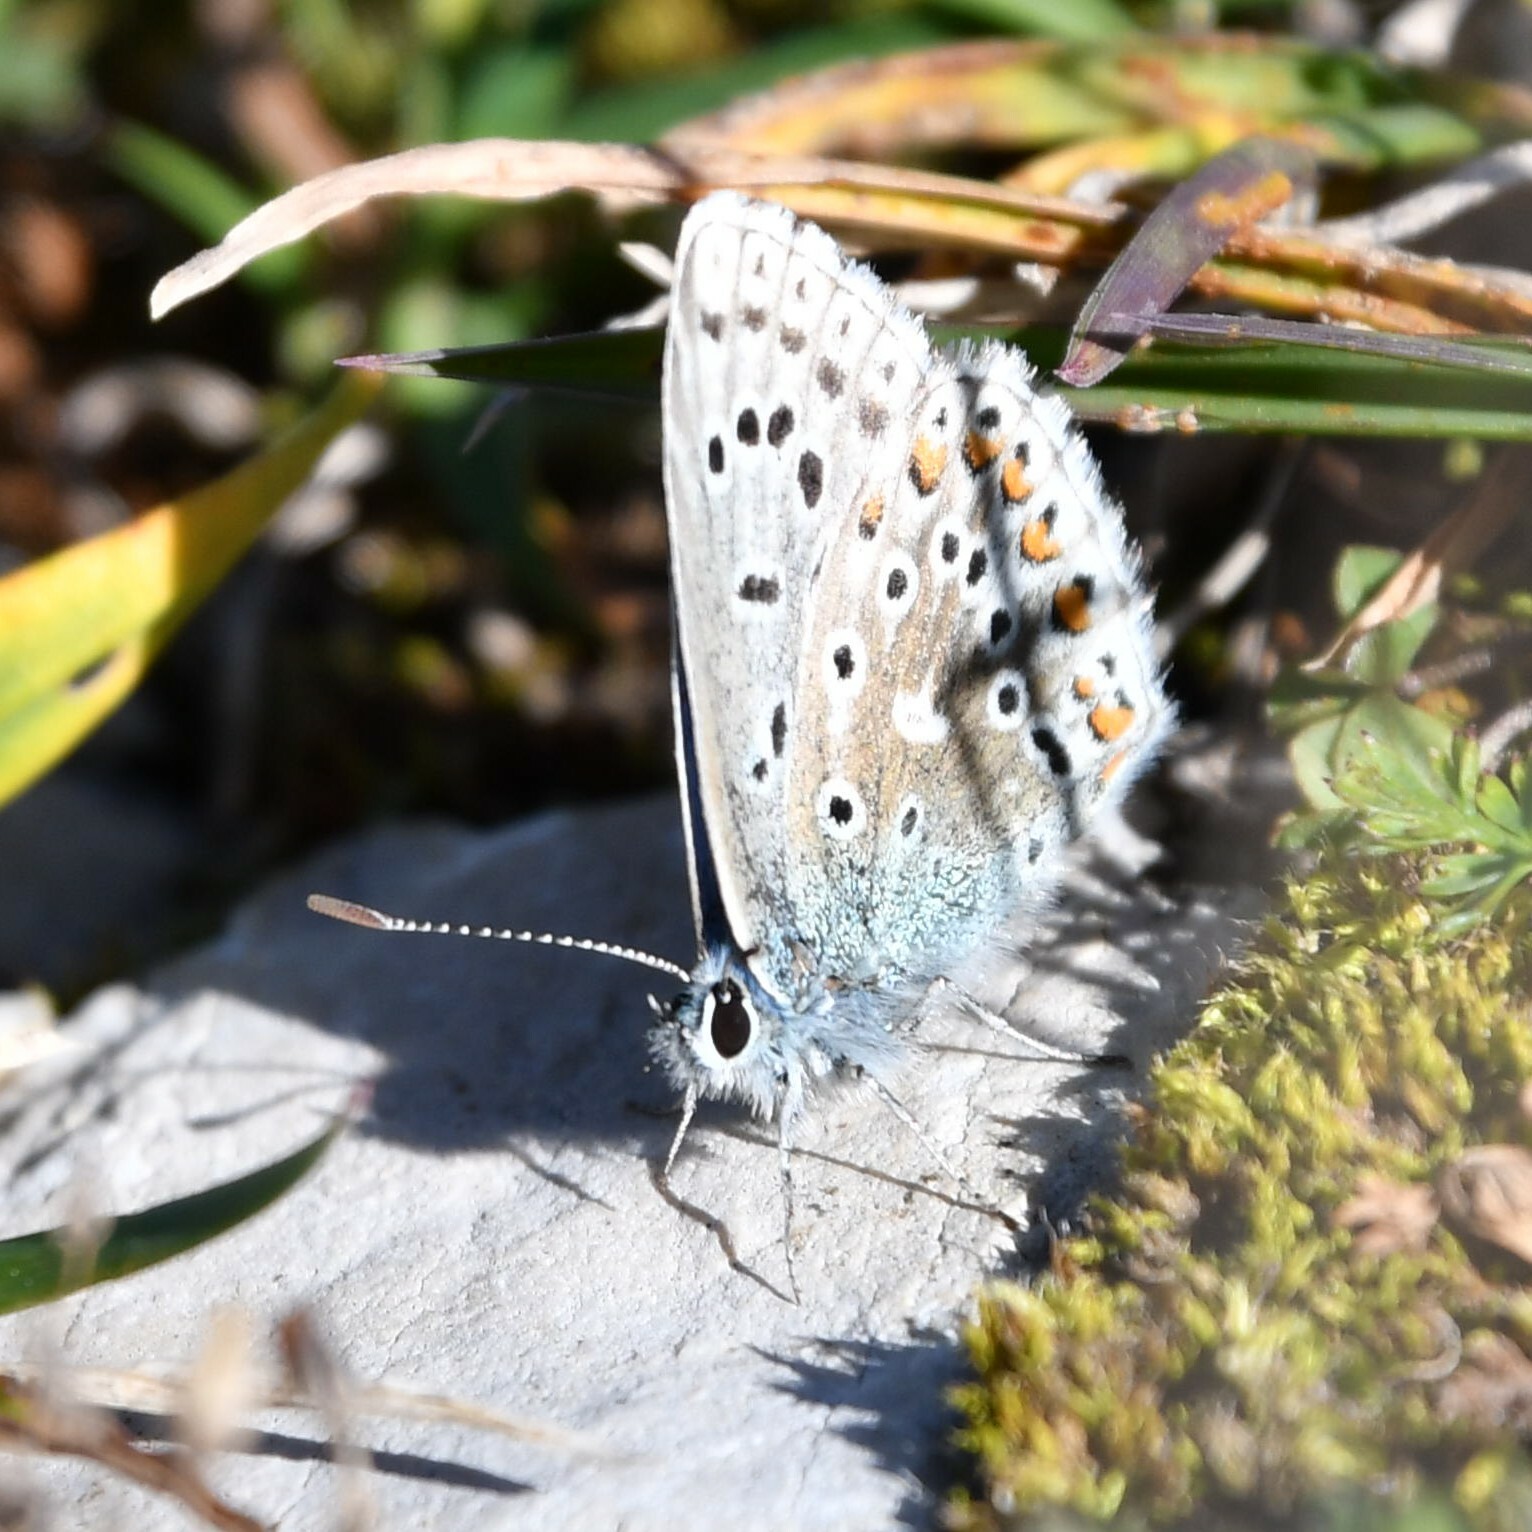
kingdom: Animalia
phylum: Arthropoda
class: Insecta
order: Lepidoptera
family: Lycaenidae
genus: Lysandra
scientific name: Lysandra bellargus
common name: Adonis blue
